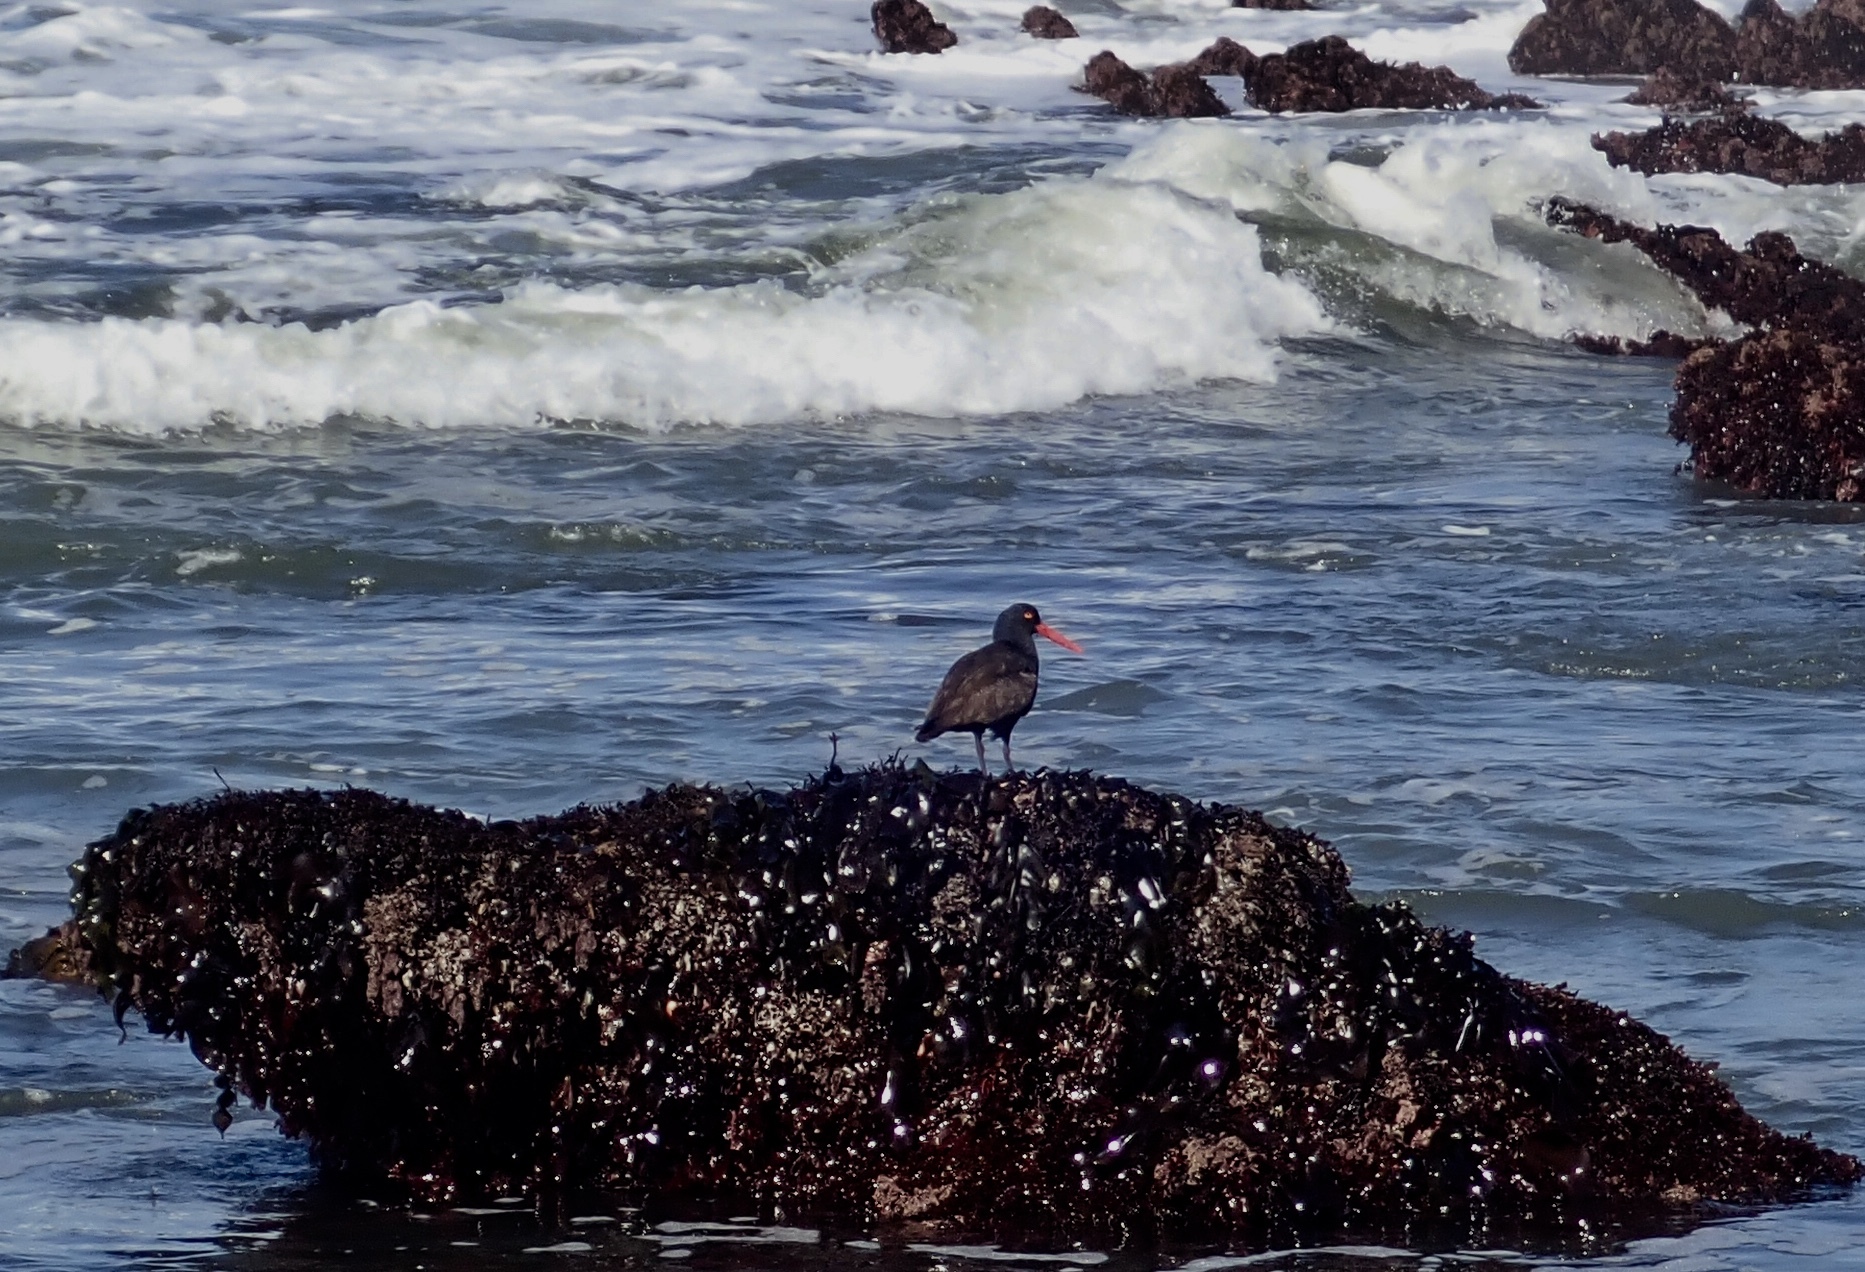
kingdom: Animalia
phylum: Chordata
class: Aves
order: Charadriiformes
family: Haematopodidae
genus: Haematopus
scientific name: Haematopus bachmani
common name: Black oystercatcher
